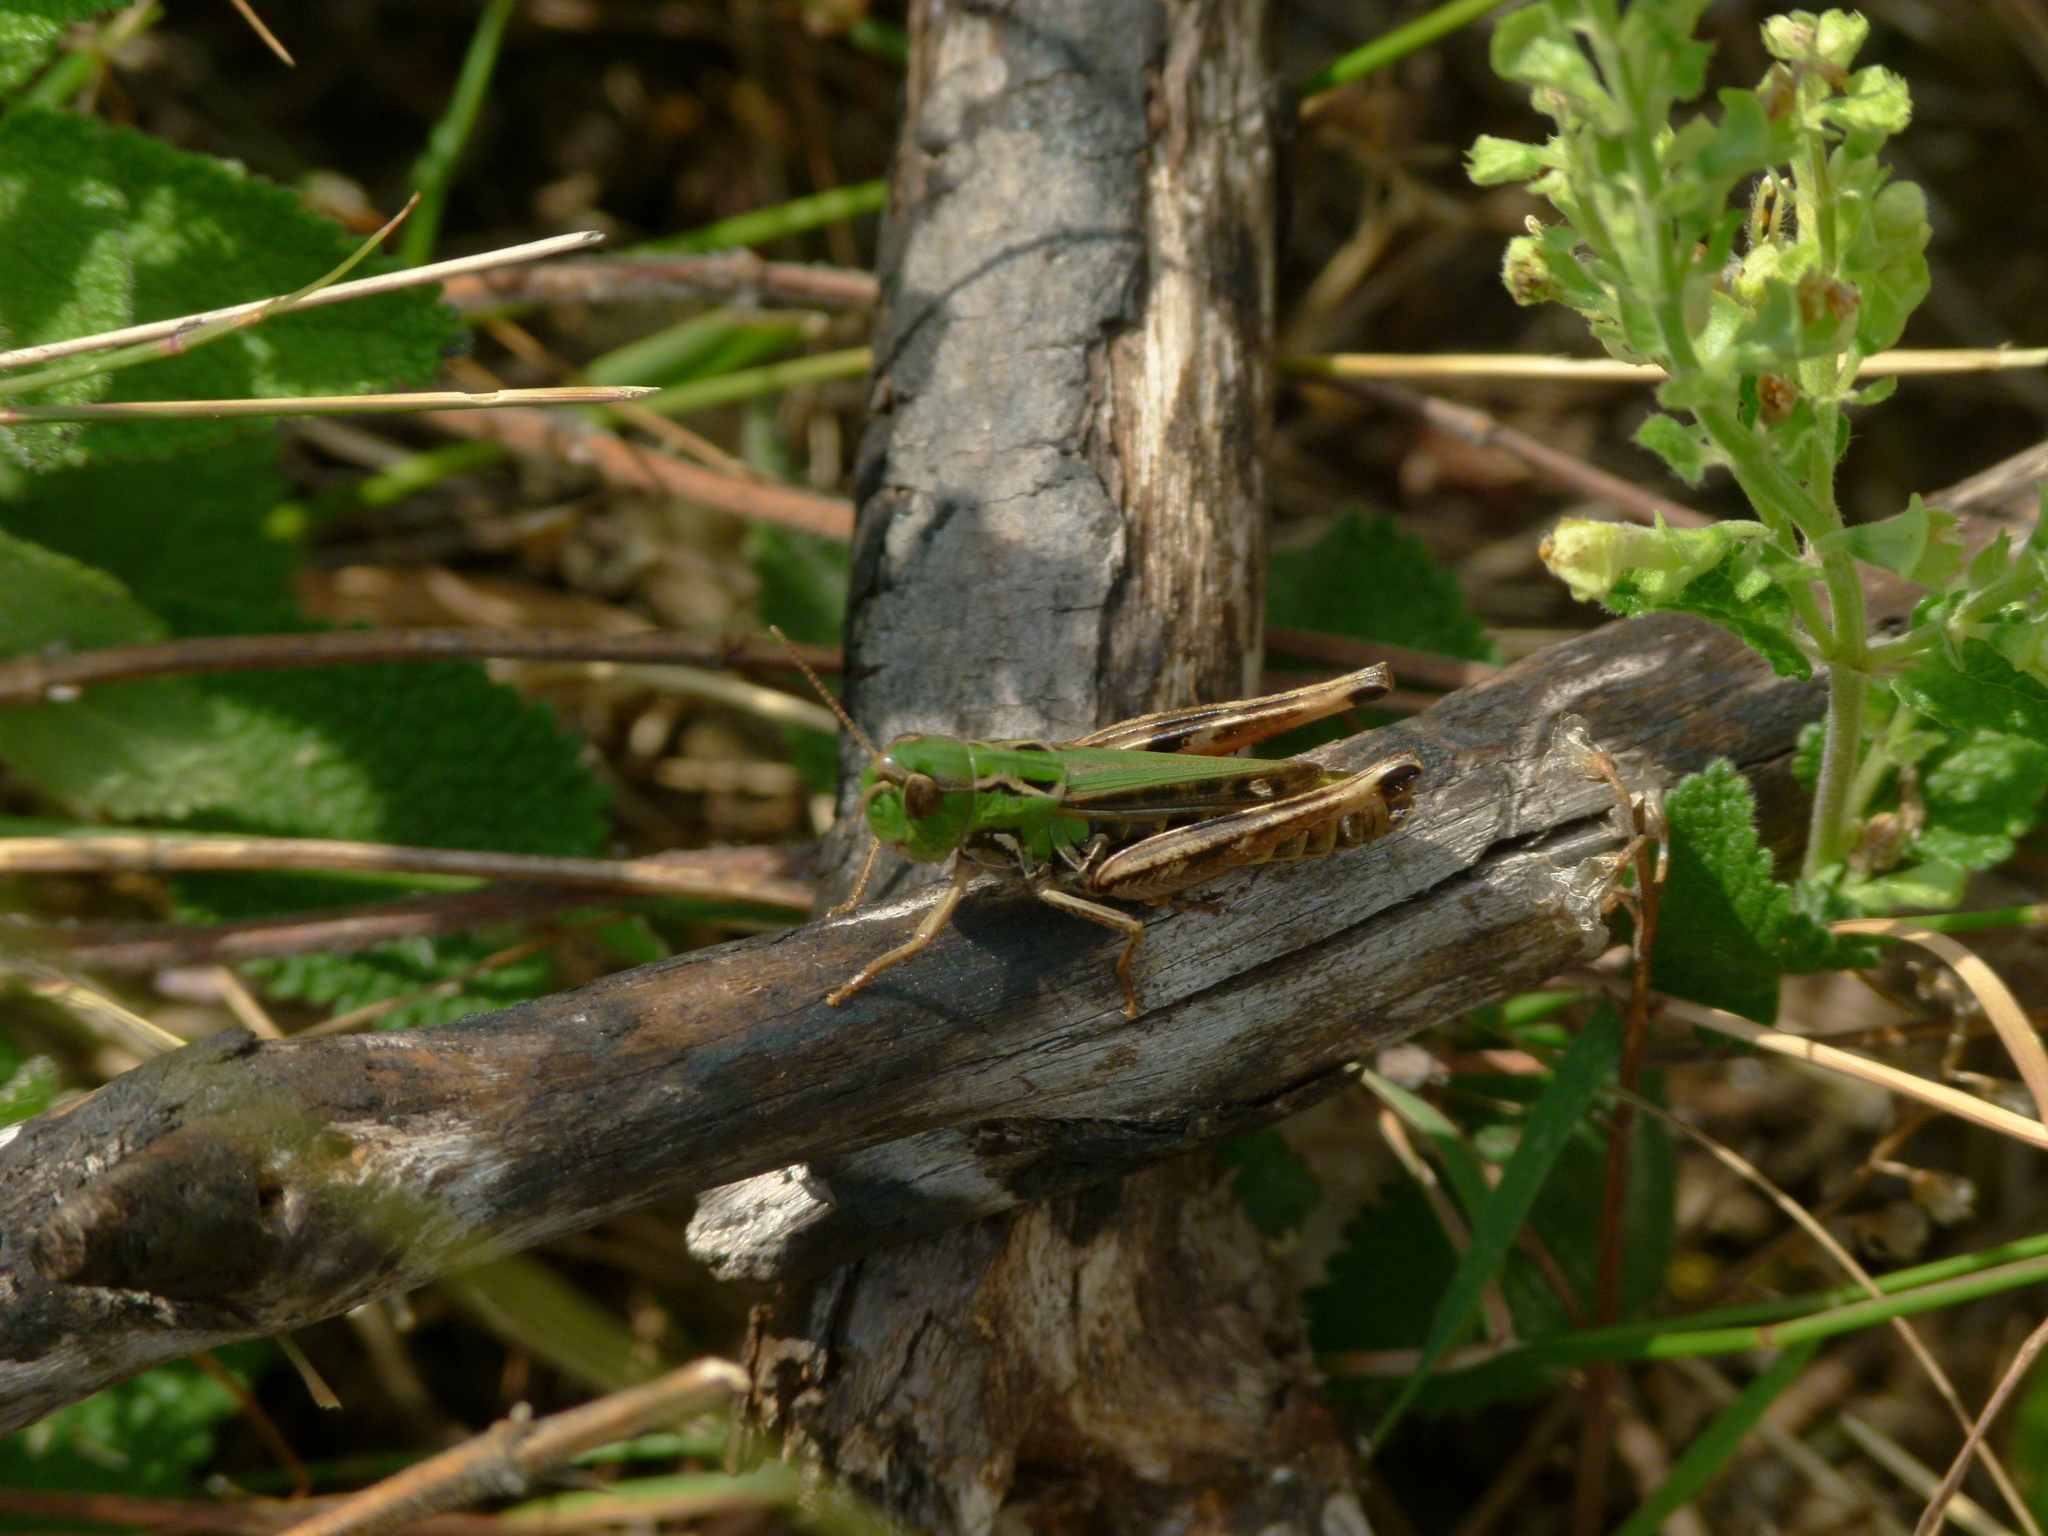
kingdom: Animalia
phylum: Arthropoda
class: Insecta
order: Orthoptera
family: Acrididae
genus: Stenobothrus
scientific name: Stenobothrus nigromaculatus
